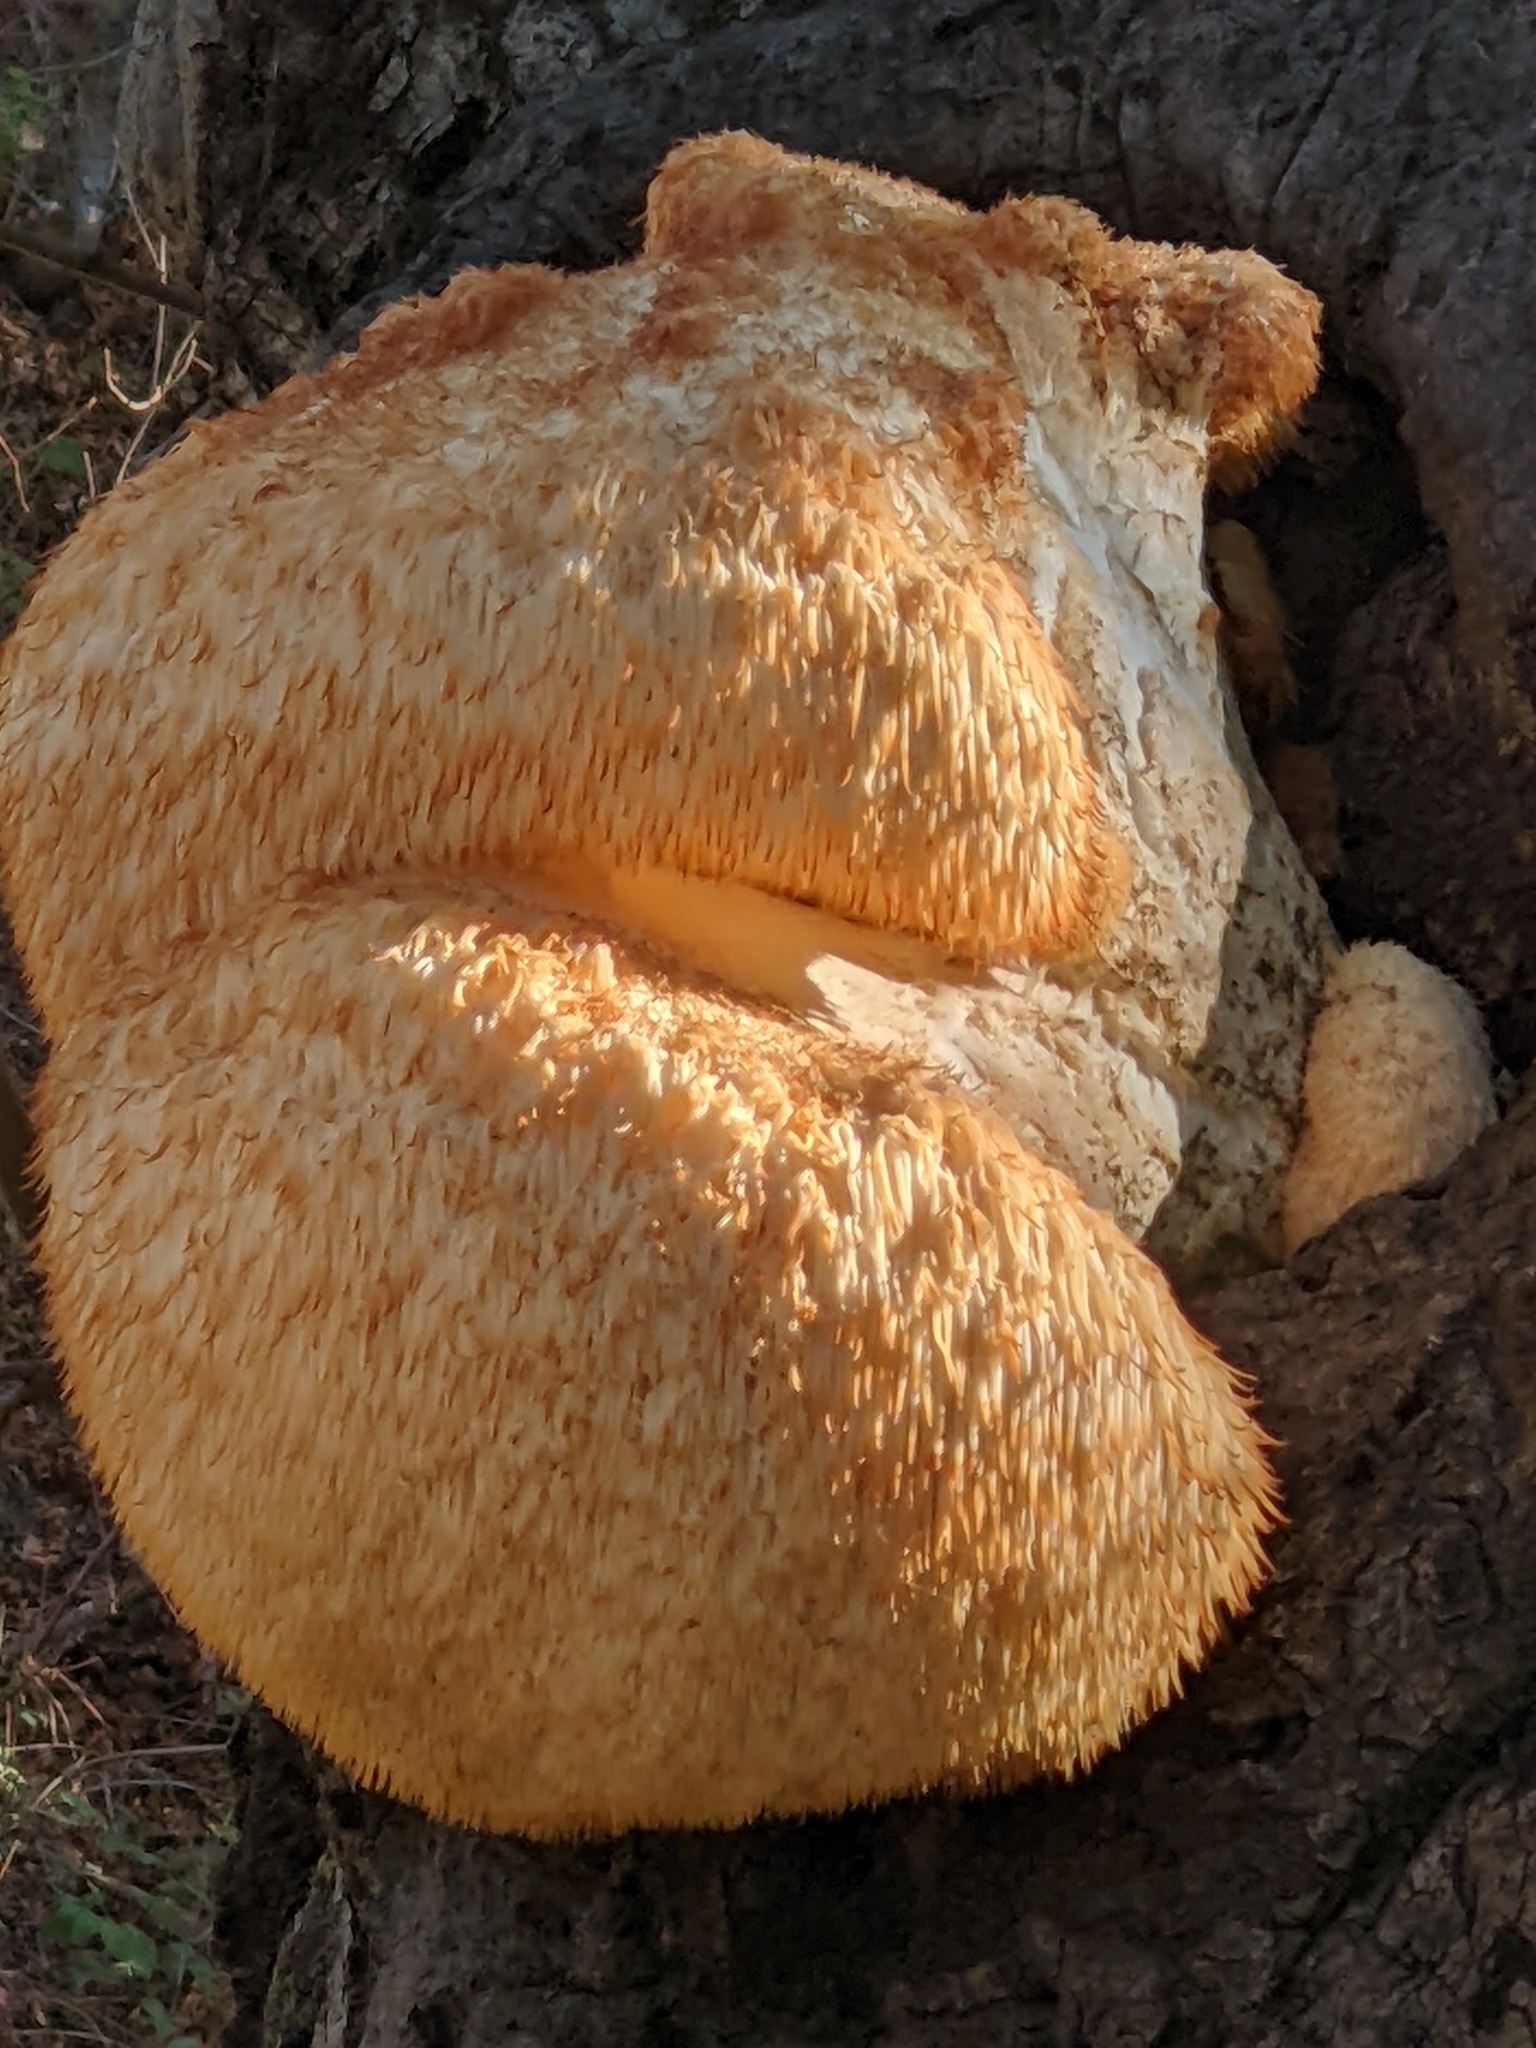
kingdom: Fungi
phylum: Basidiomycota
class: Agaricomycetes
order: Russulales
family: Hericiaceae
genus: Hericium
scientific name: Hericium erinaceus
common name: Bearded tooth
